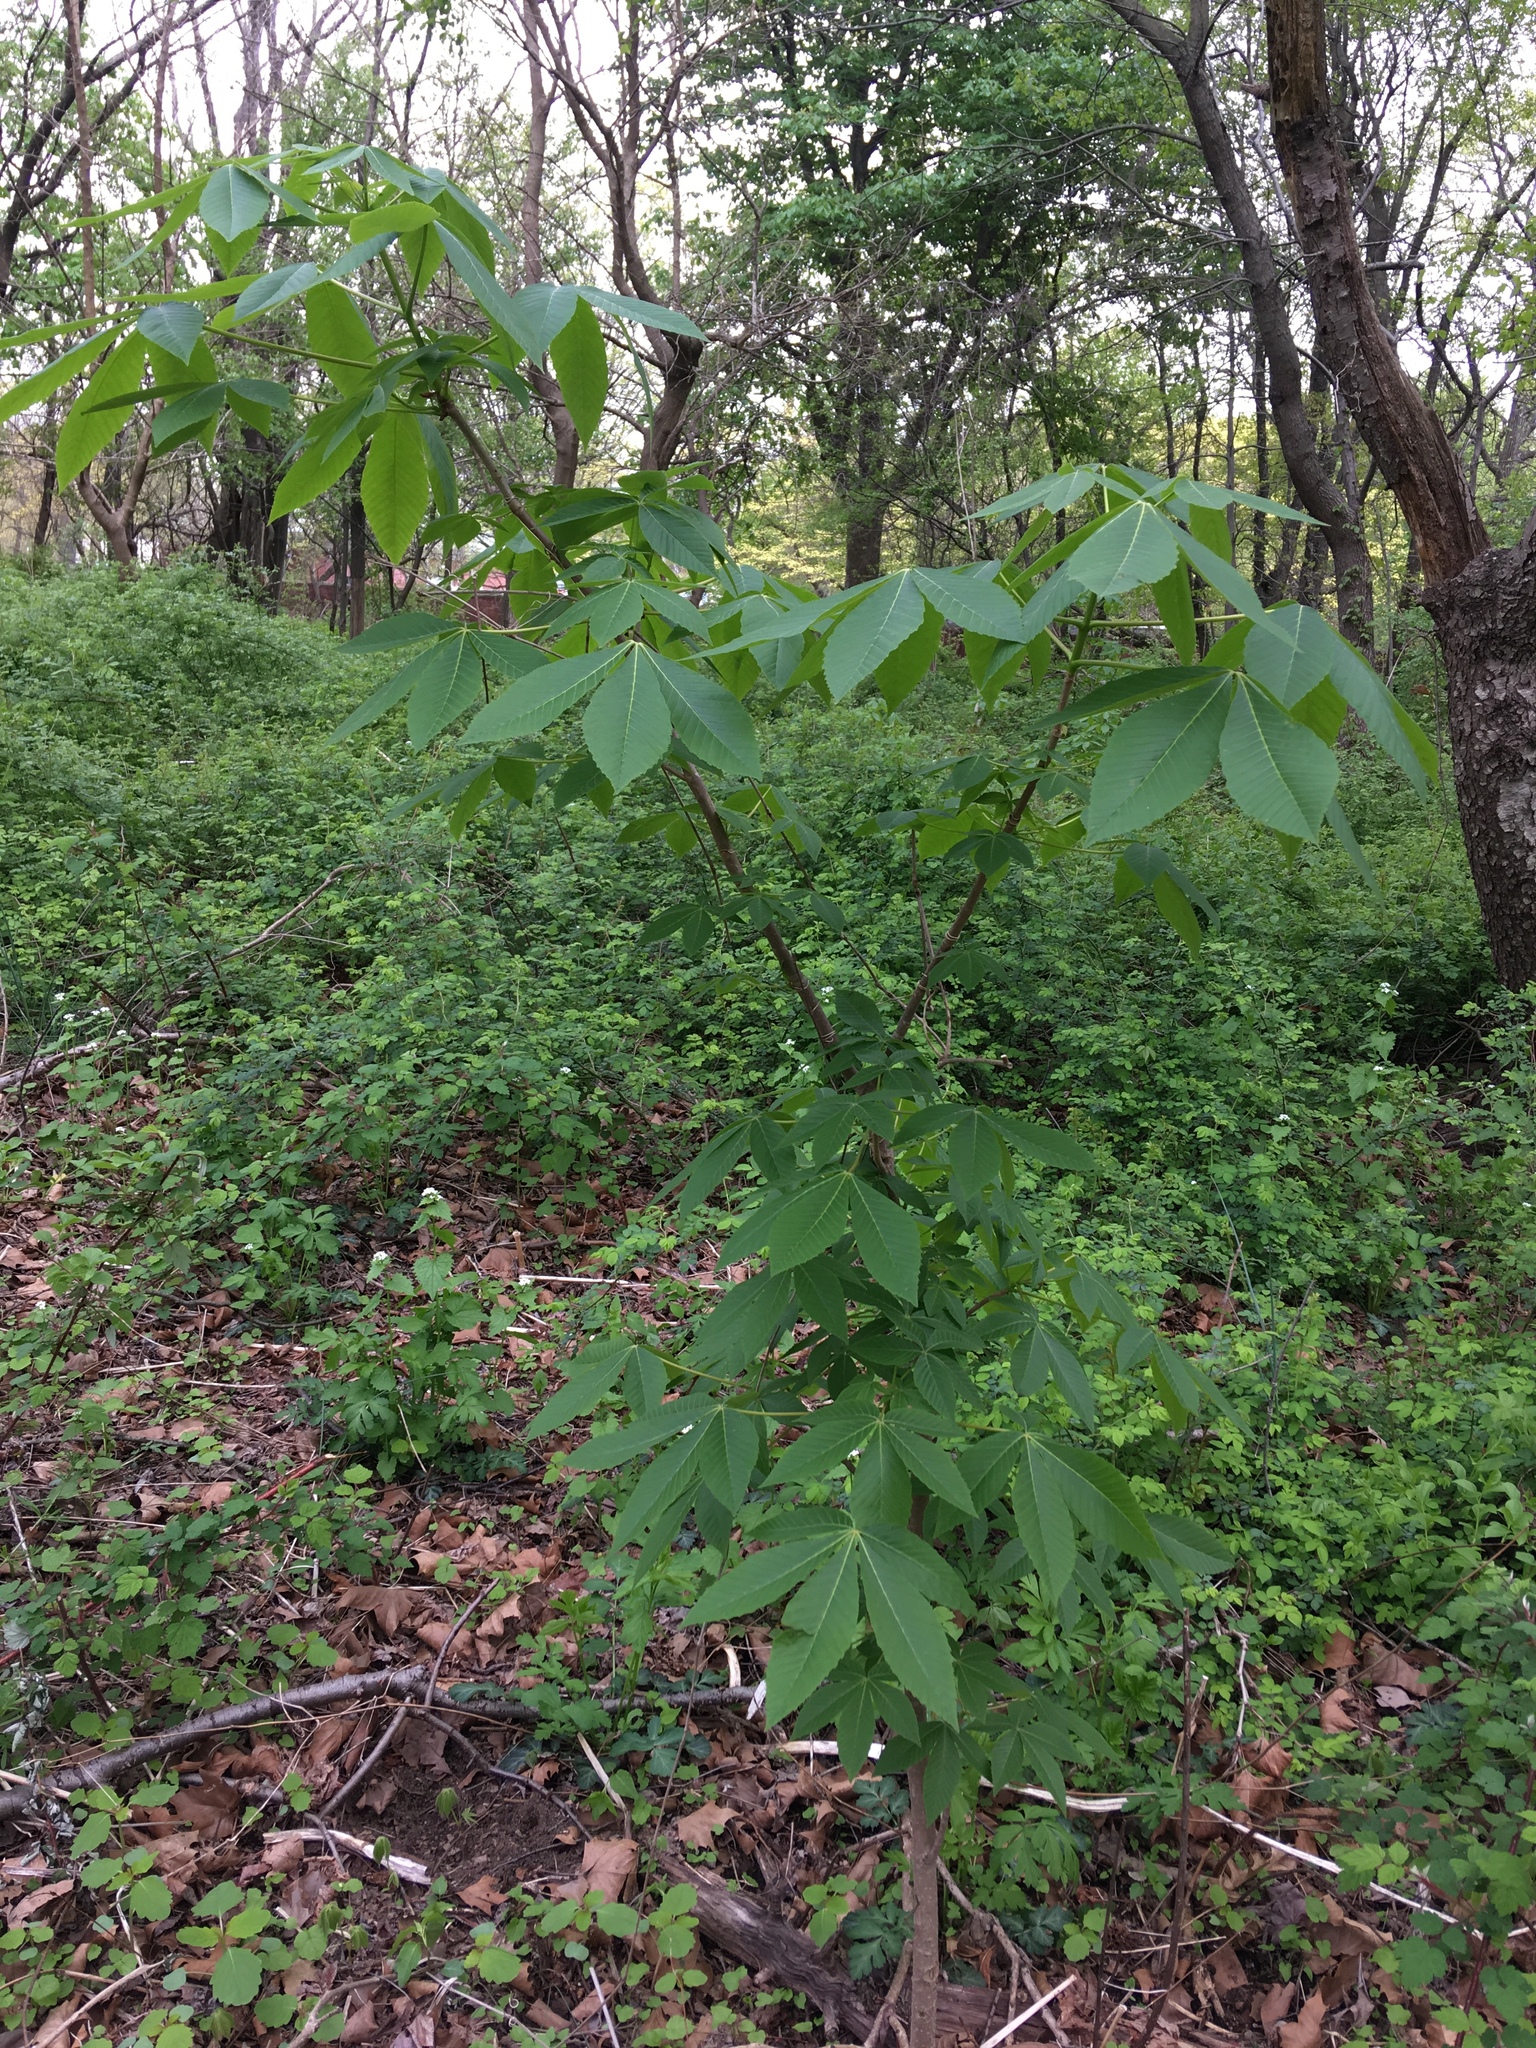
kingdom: Plantae
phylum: Tracheophyta
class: Magnoliopsida
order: Sapindales
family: Sapindaceae
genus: Aesculus
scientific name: Aesculus glabra
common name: Ohio buckeye
